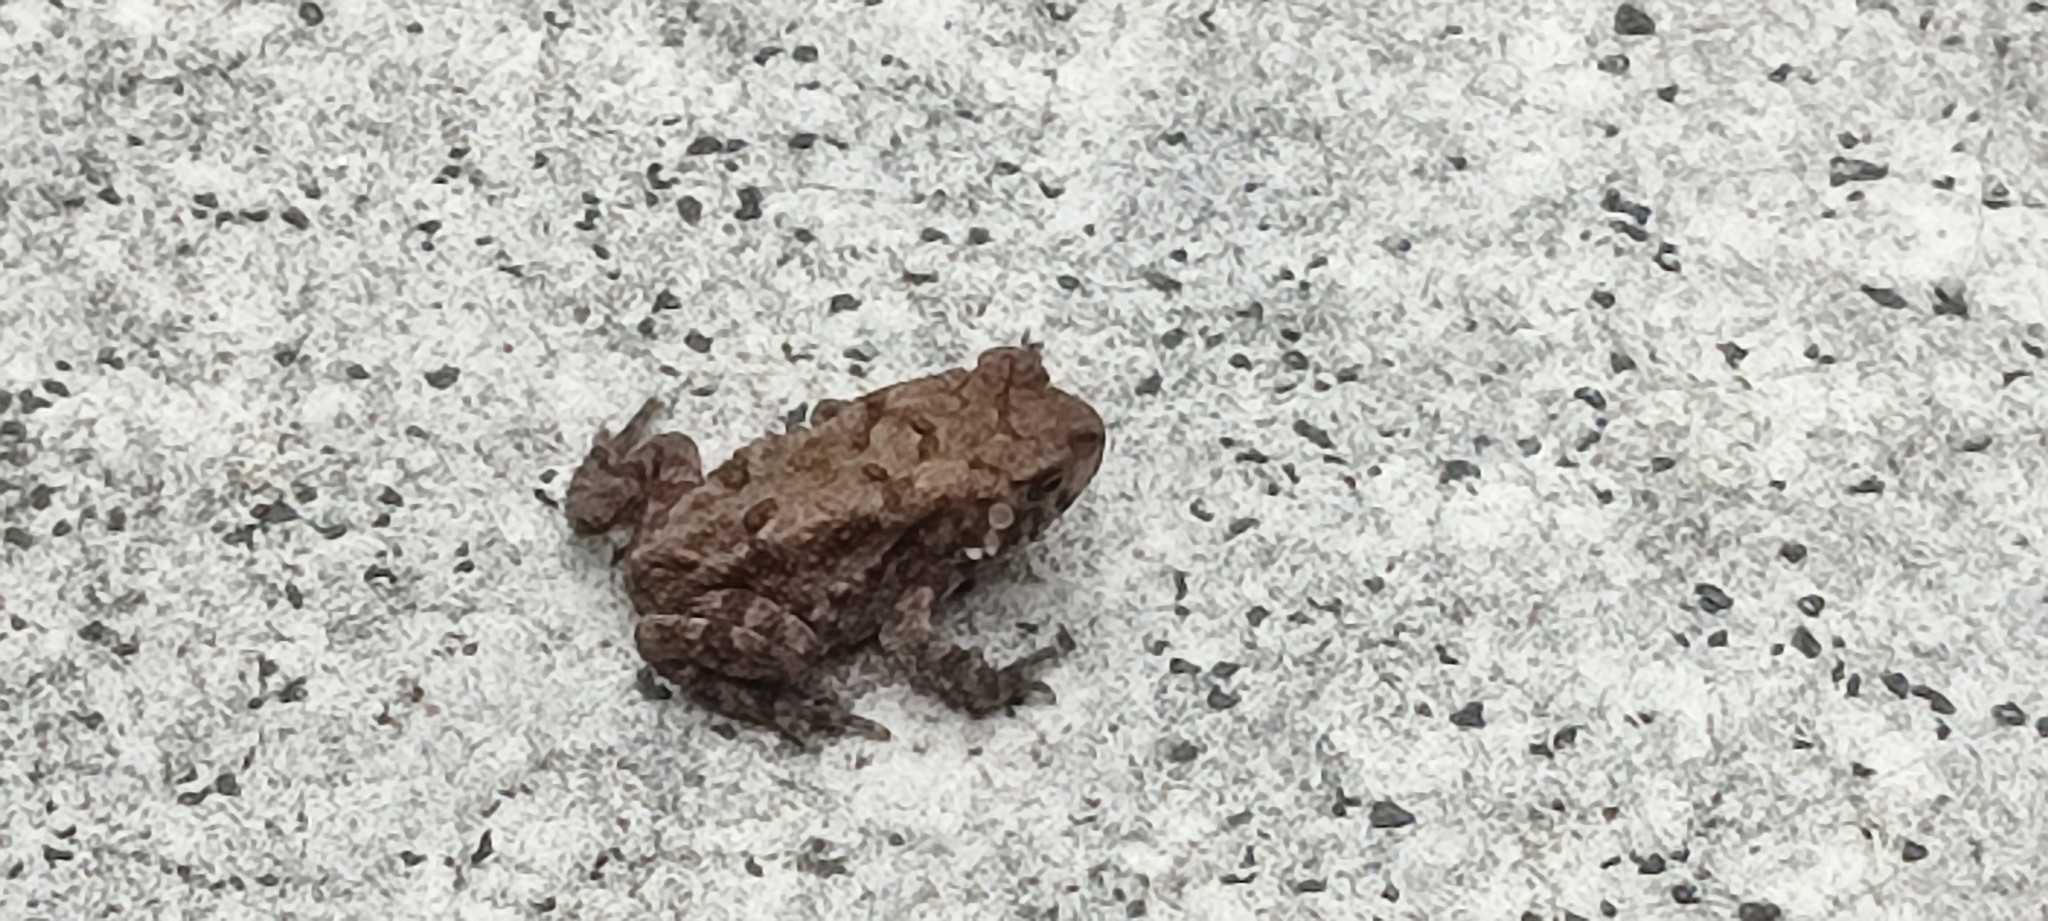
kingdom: Animalia
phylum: Chordata
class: Amphibia
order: Anura
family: Bufonidae
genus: Duttaphrynus
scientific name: Duttaphrynus melanostictus
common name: Common sunda toad
